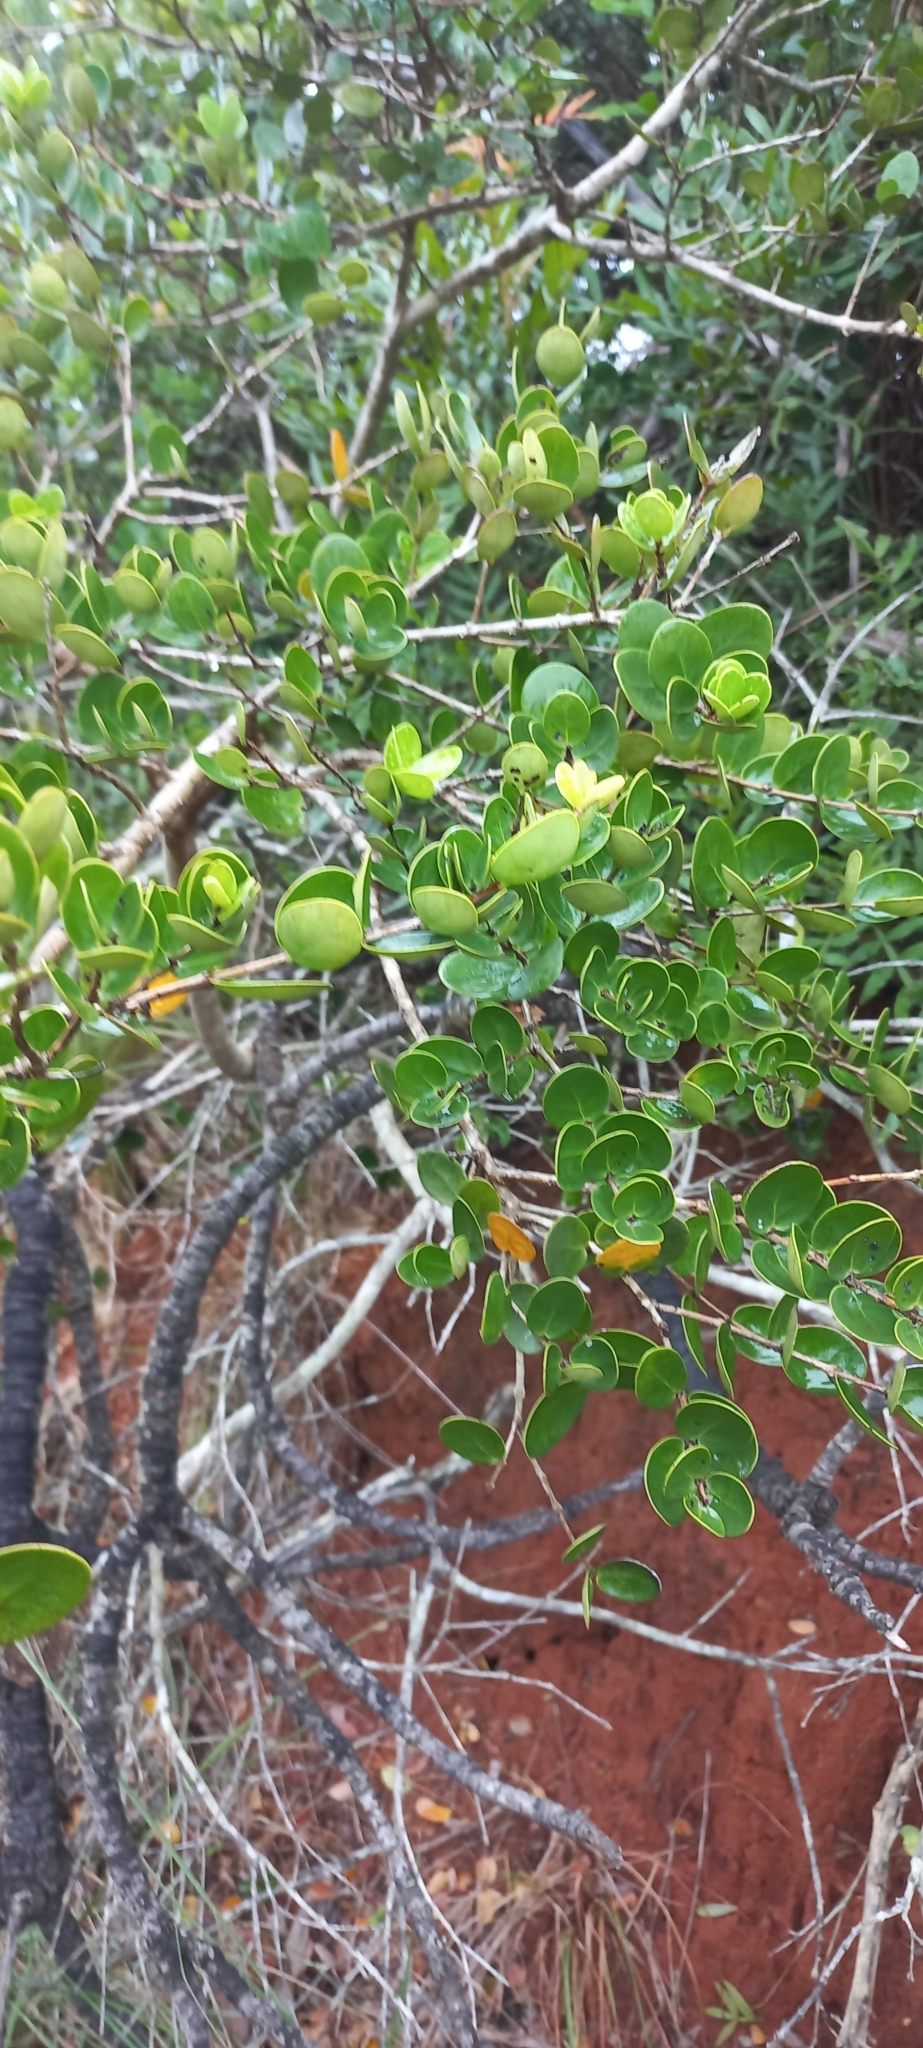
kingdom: Plantae
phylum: Tracheophyta
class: Magnoliopsida
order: Myrtales
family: Myrtaceae
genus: Eugenia
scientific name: Eugenia capensis
